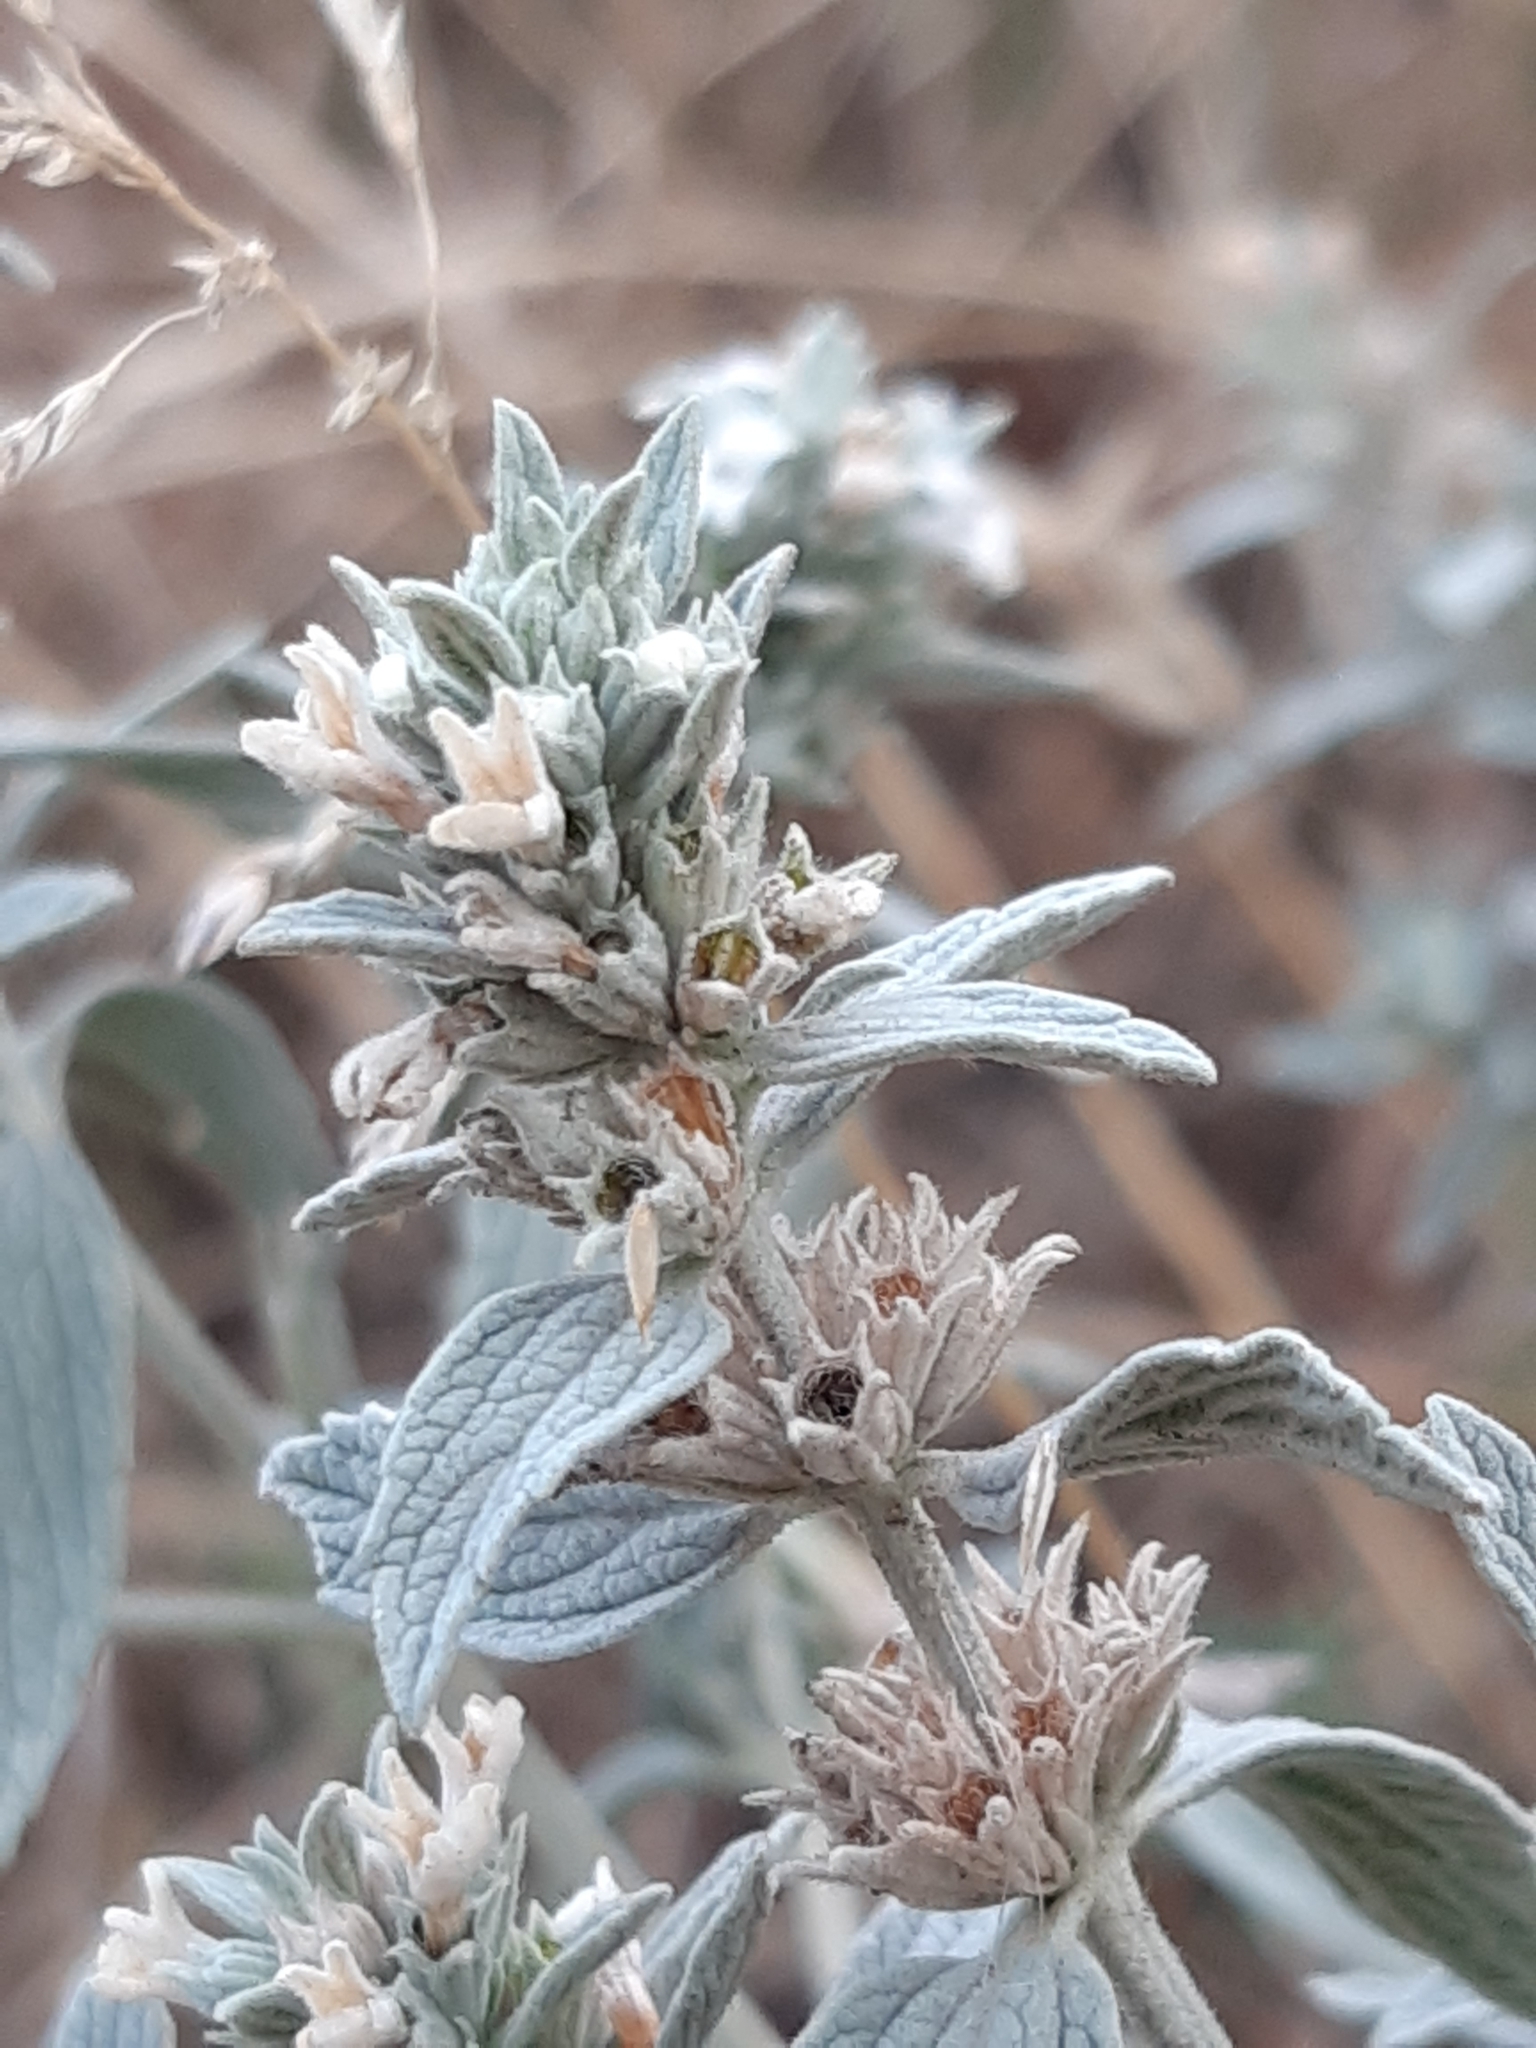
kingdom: Plantae
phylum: Tracheophyta
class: Magnoliopsida
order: Lamiales
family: Lamiaceae
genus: Marrubium
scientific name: Marrubium peregrinum
